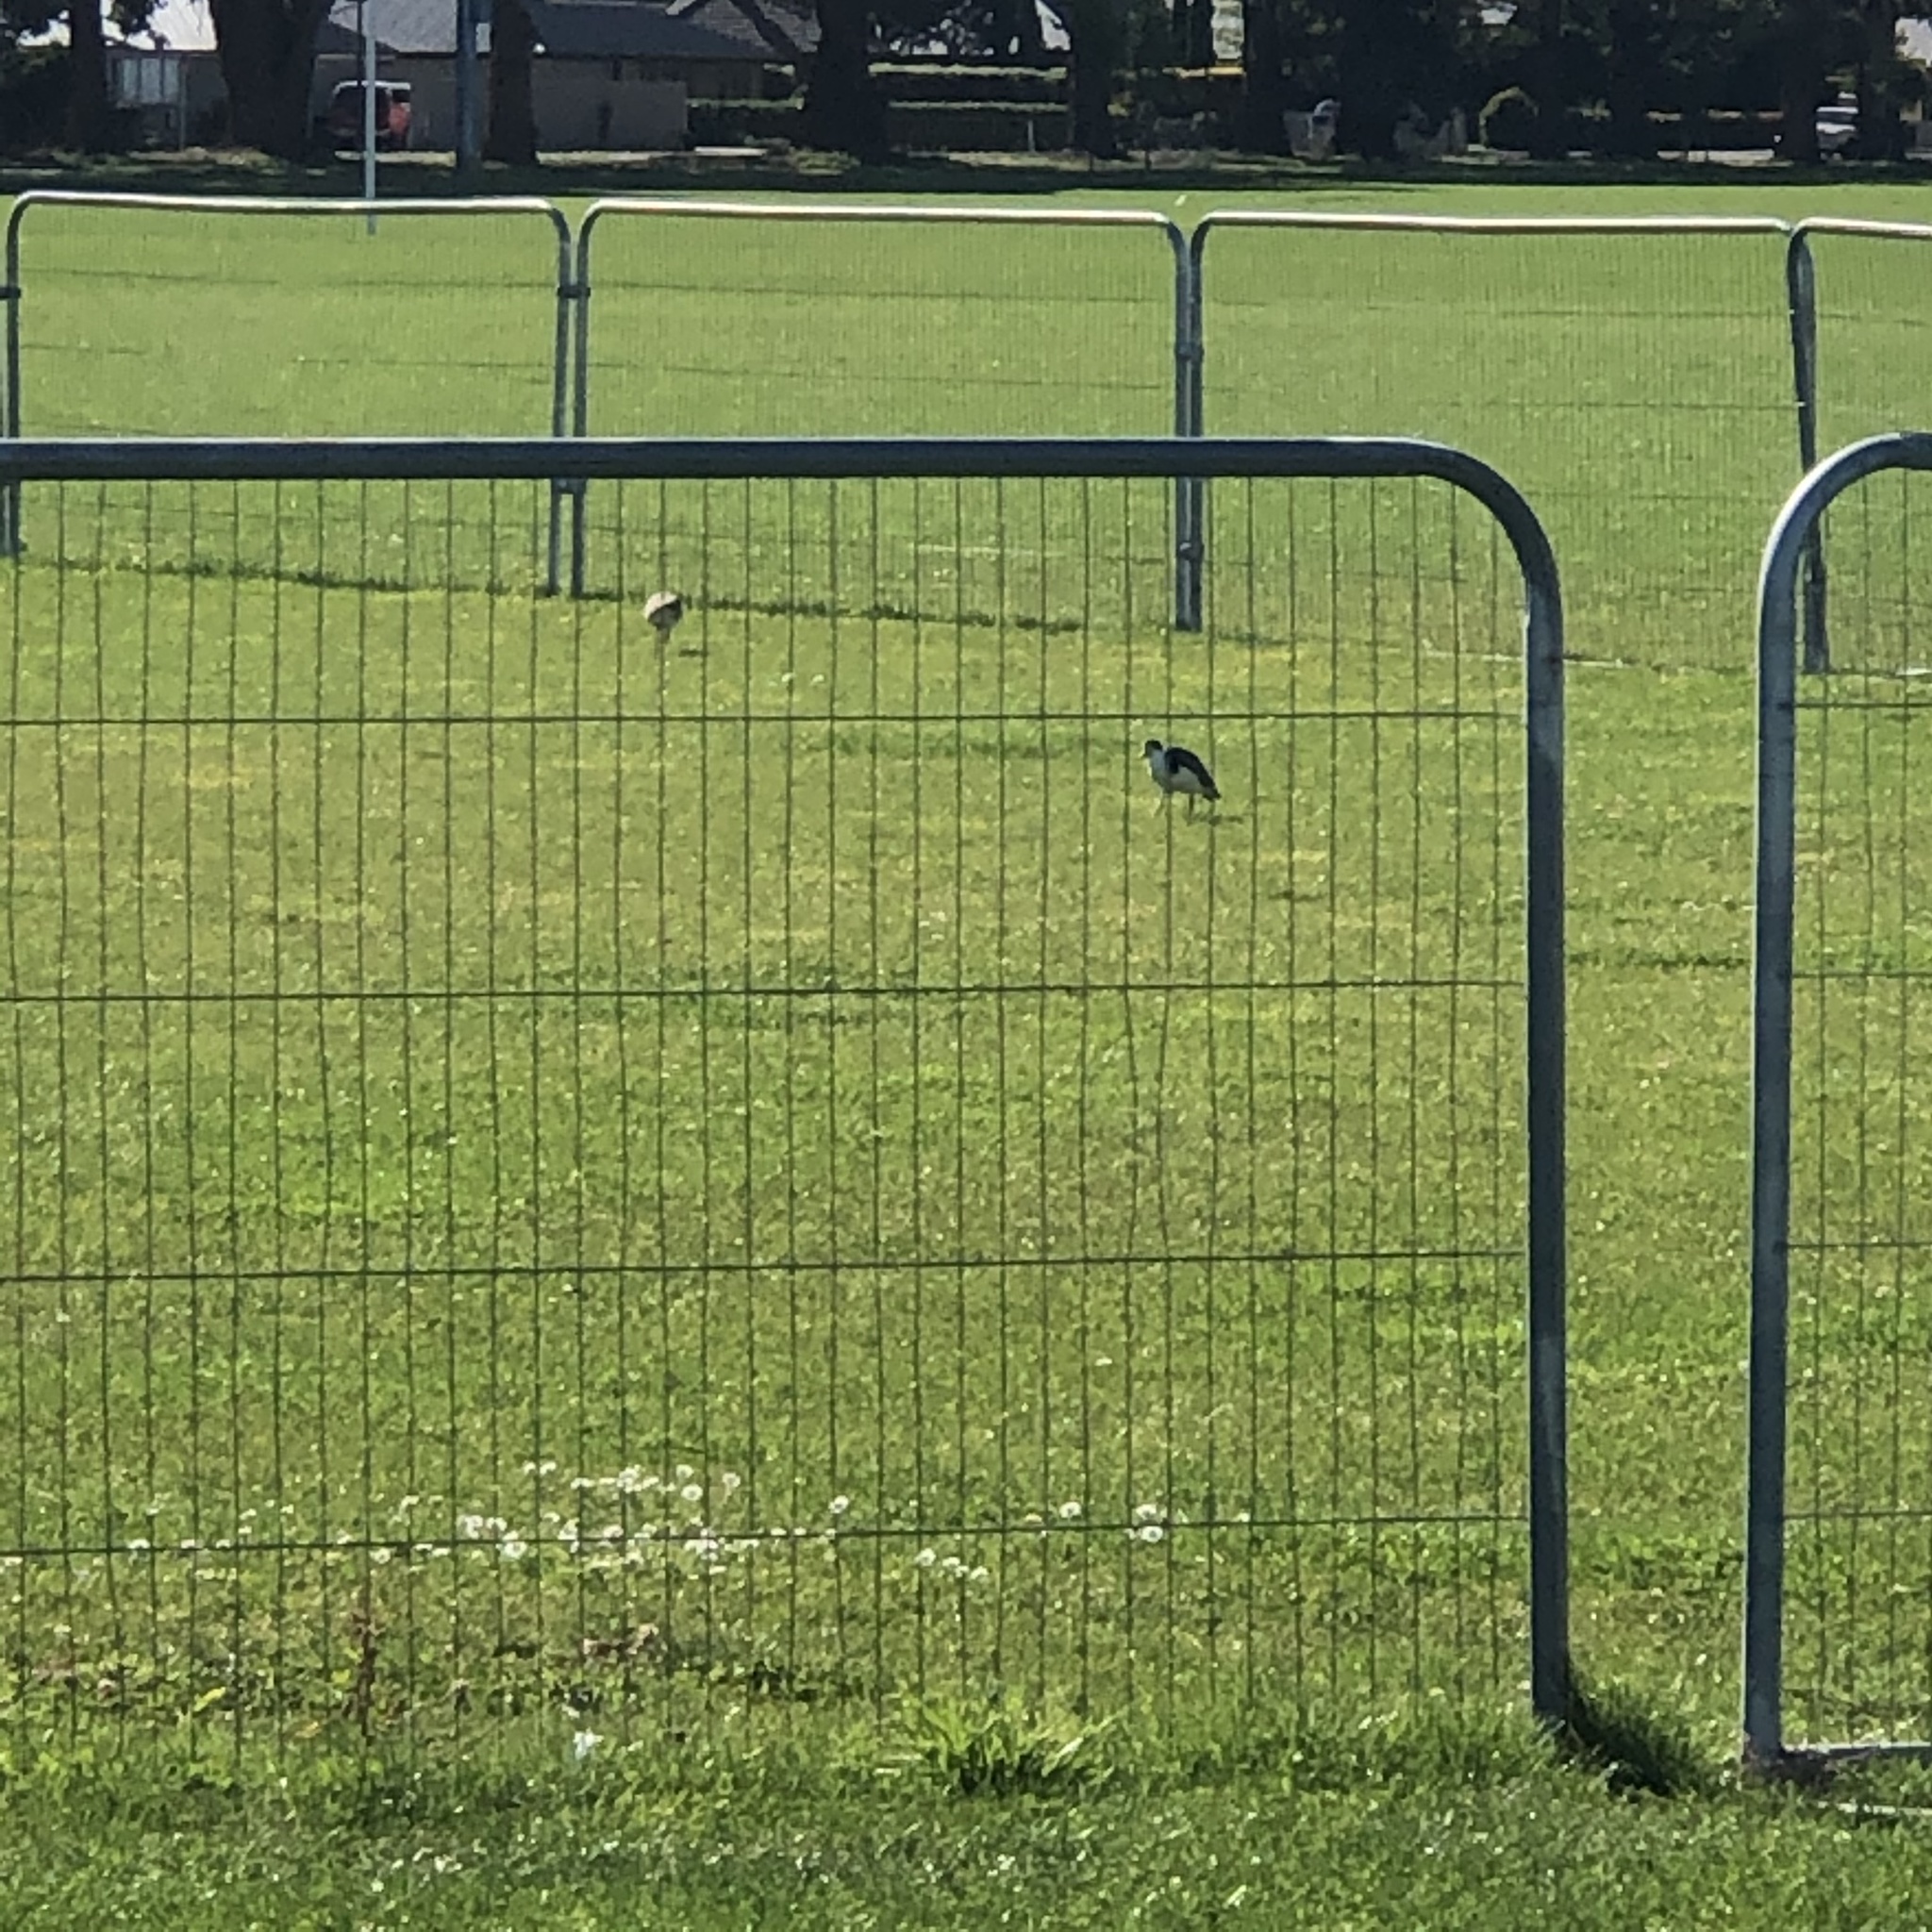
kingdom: Animalia
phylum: Chordata
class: Aves
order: Charadriiformes
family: Charadriidae
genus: Vanellus
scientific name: Vanellus miles
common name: Masked lapwing
